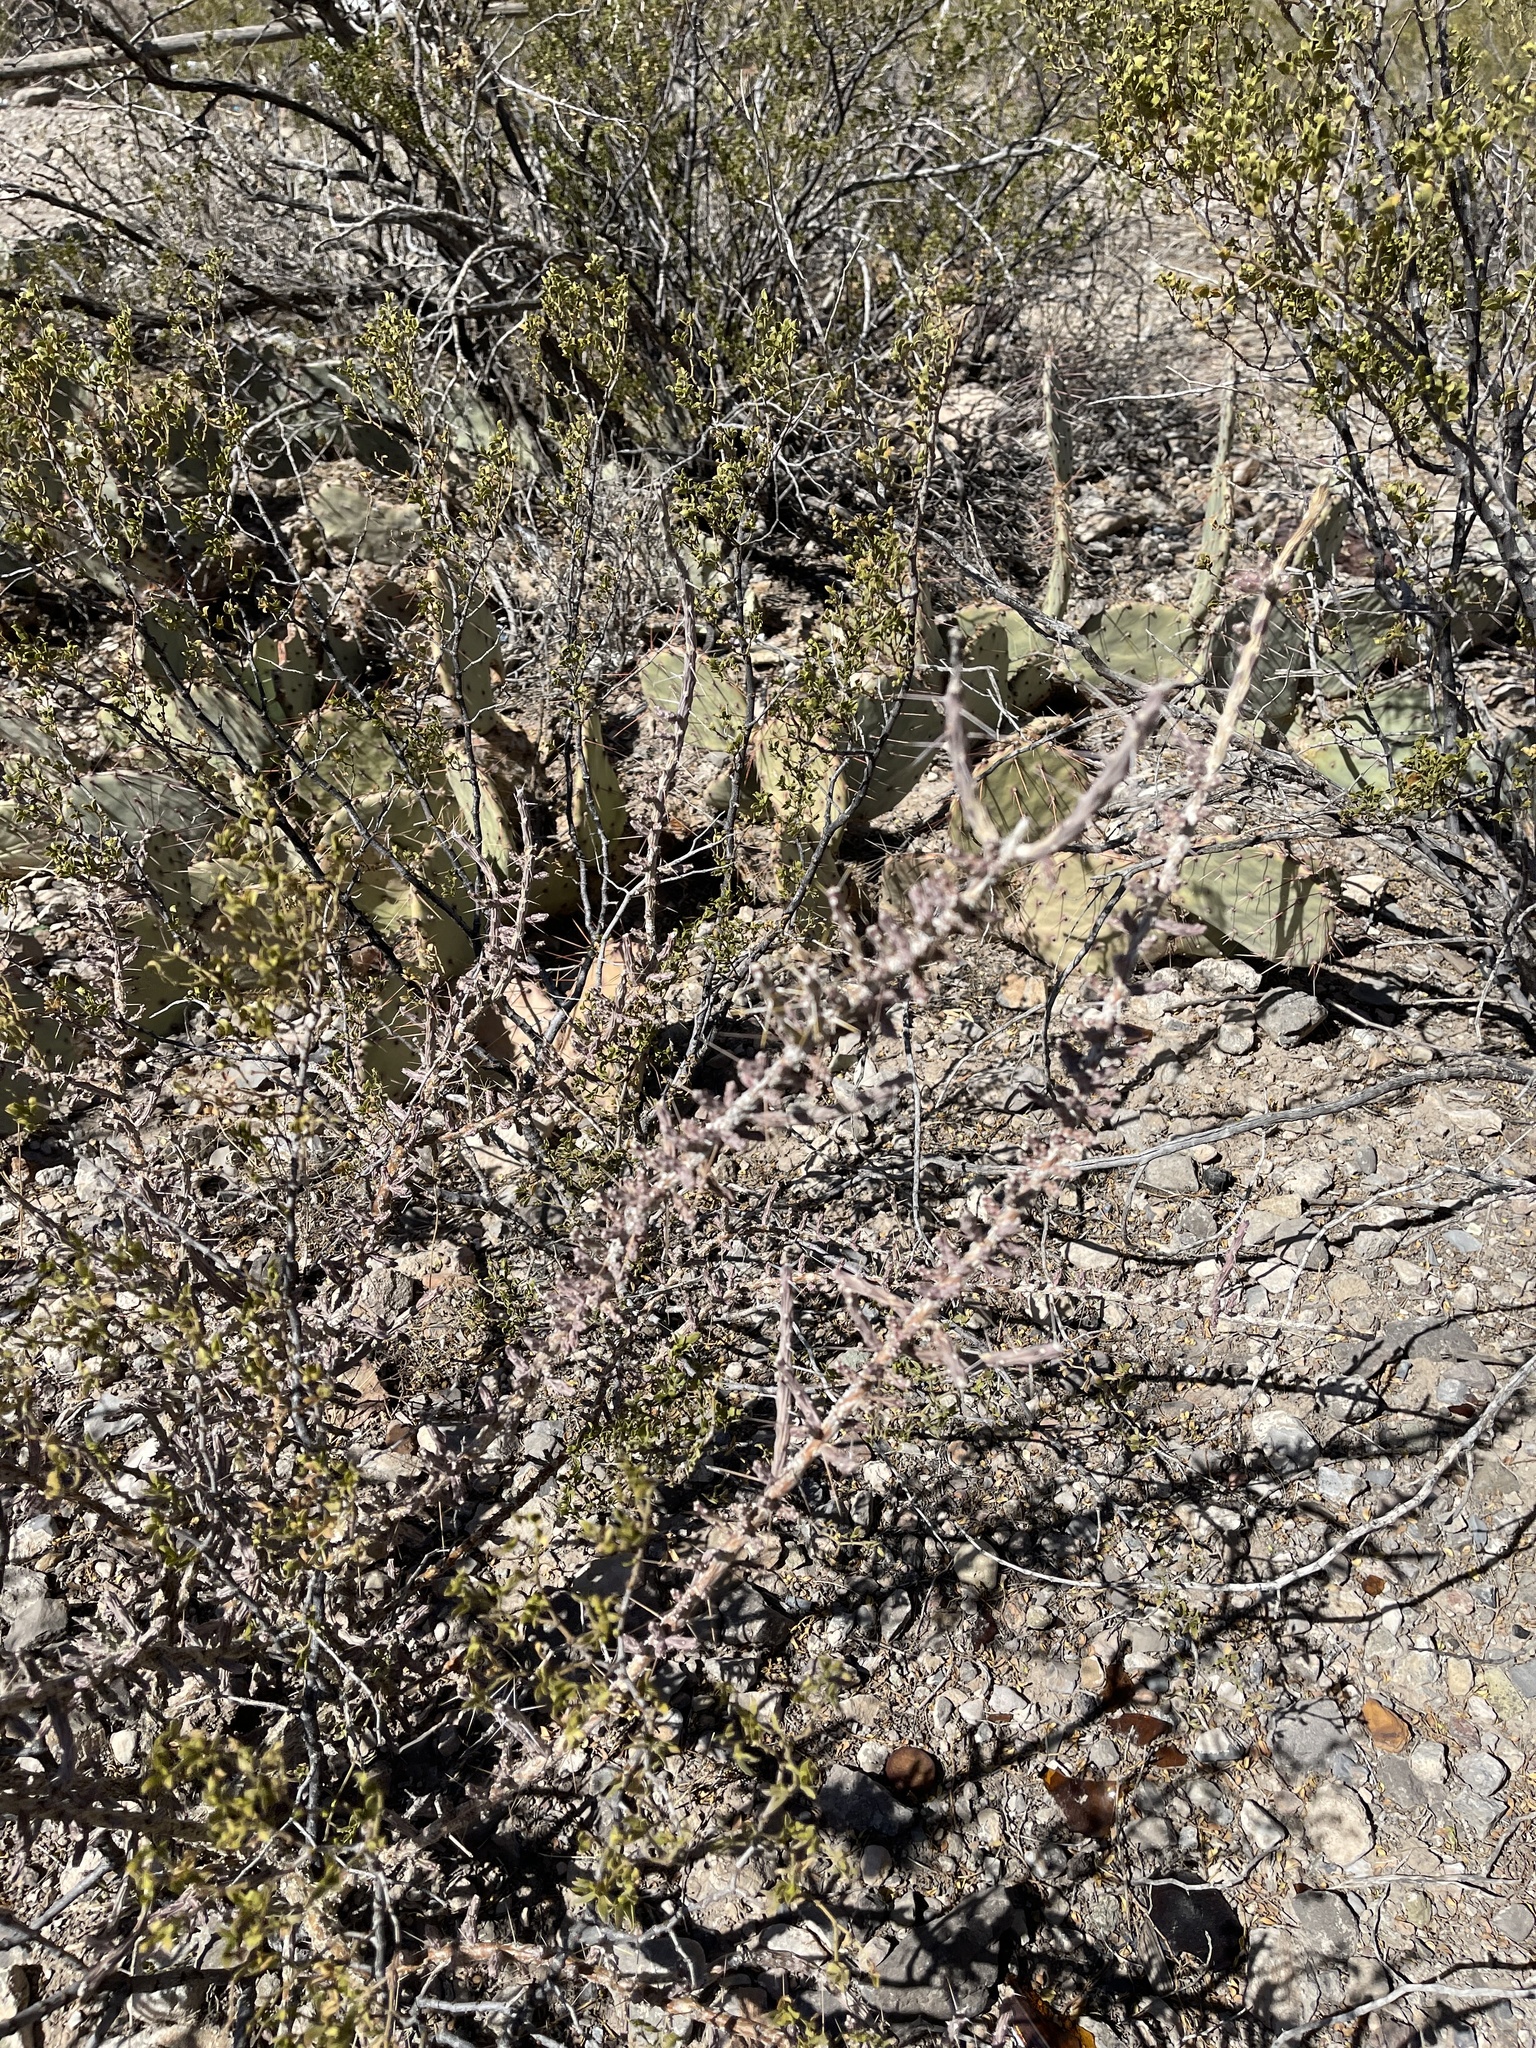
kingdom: Plantae
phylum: Tracheophyta
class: Magnoliopsida
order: Caryophyllales
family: Cactaceae
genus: Cylindropuntia
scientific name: Cylindropuntia leptocaulis
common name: Christmas cactus
